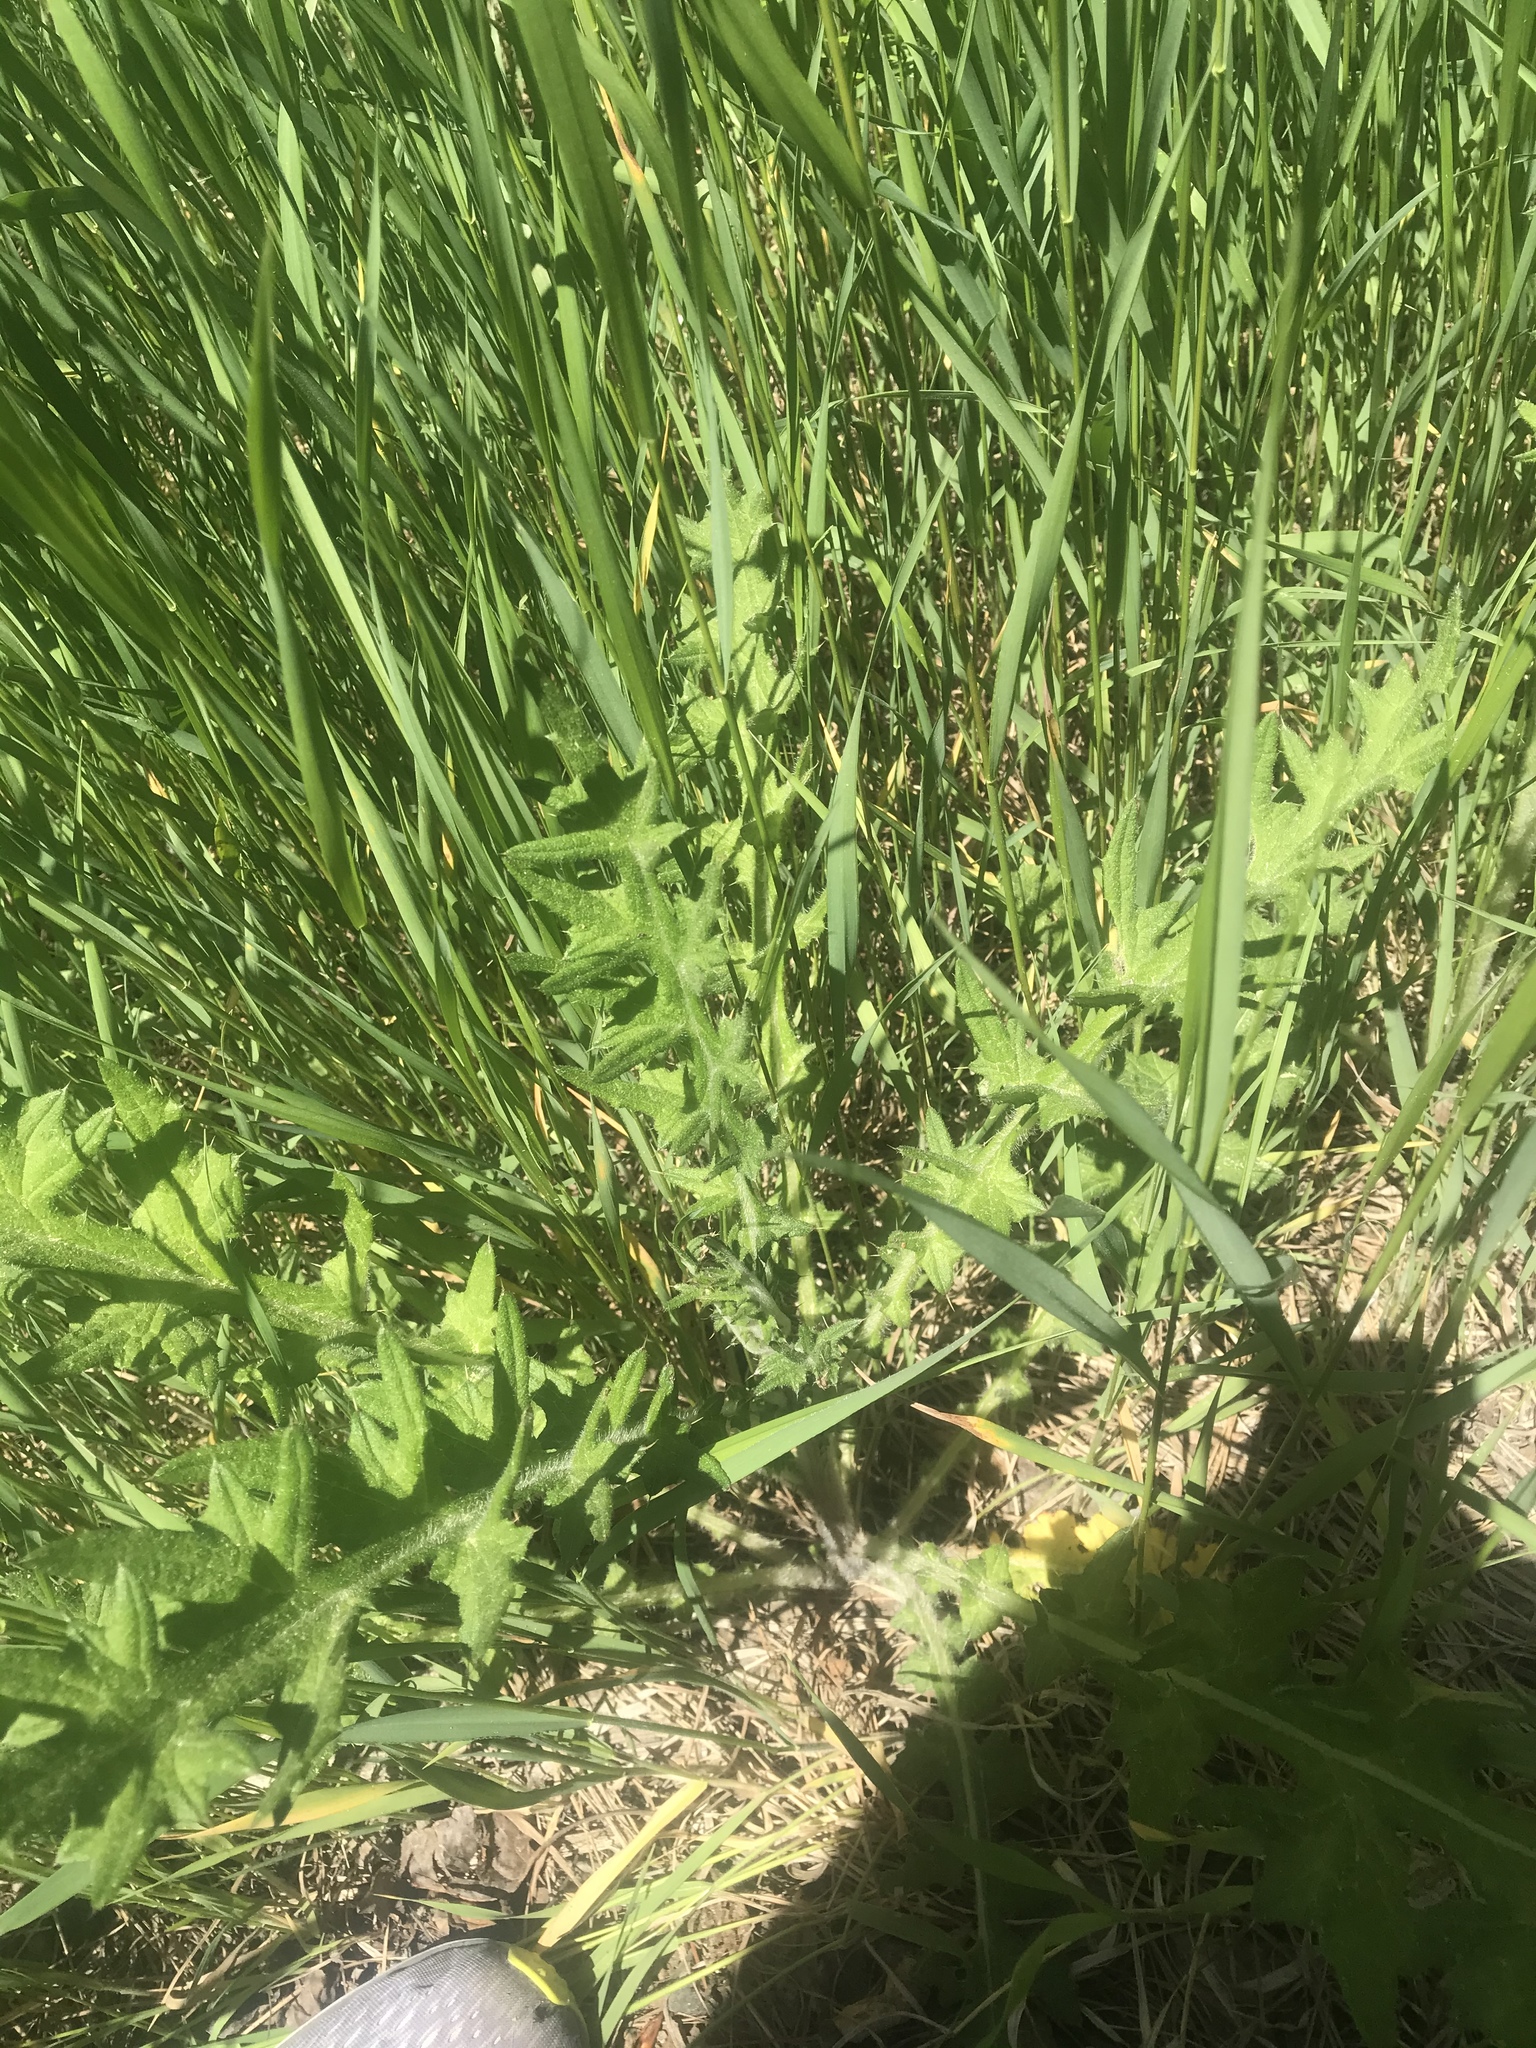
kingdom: Plantae
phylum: Tracheophyta
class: Magnoliopsida
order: Asterales
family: Asteraceae
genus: Cirsium
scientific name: Cirsium arvense
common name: Creeping thistle
